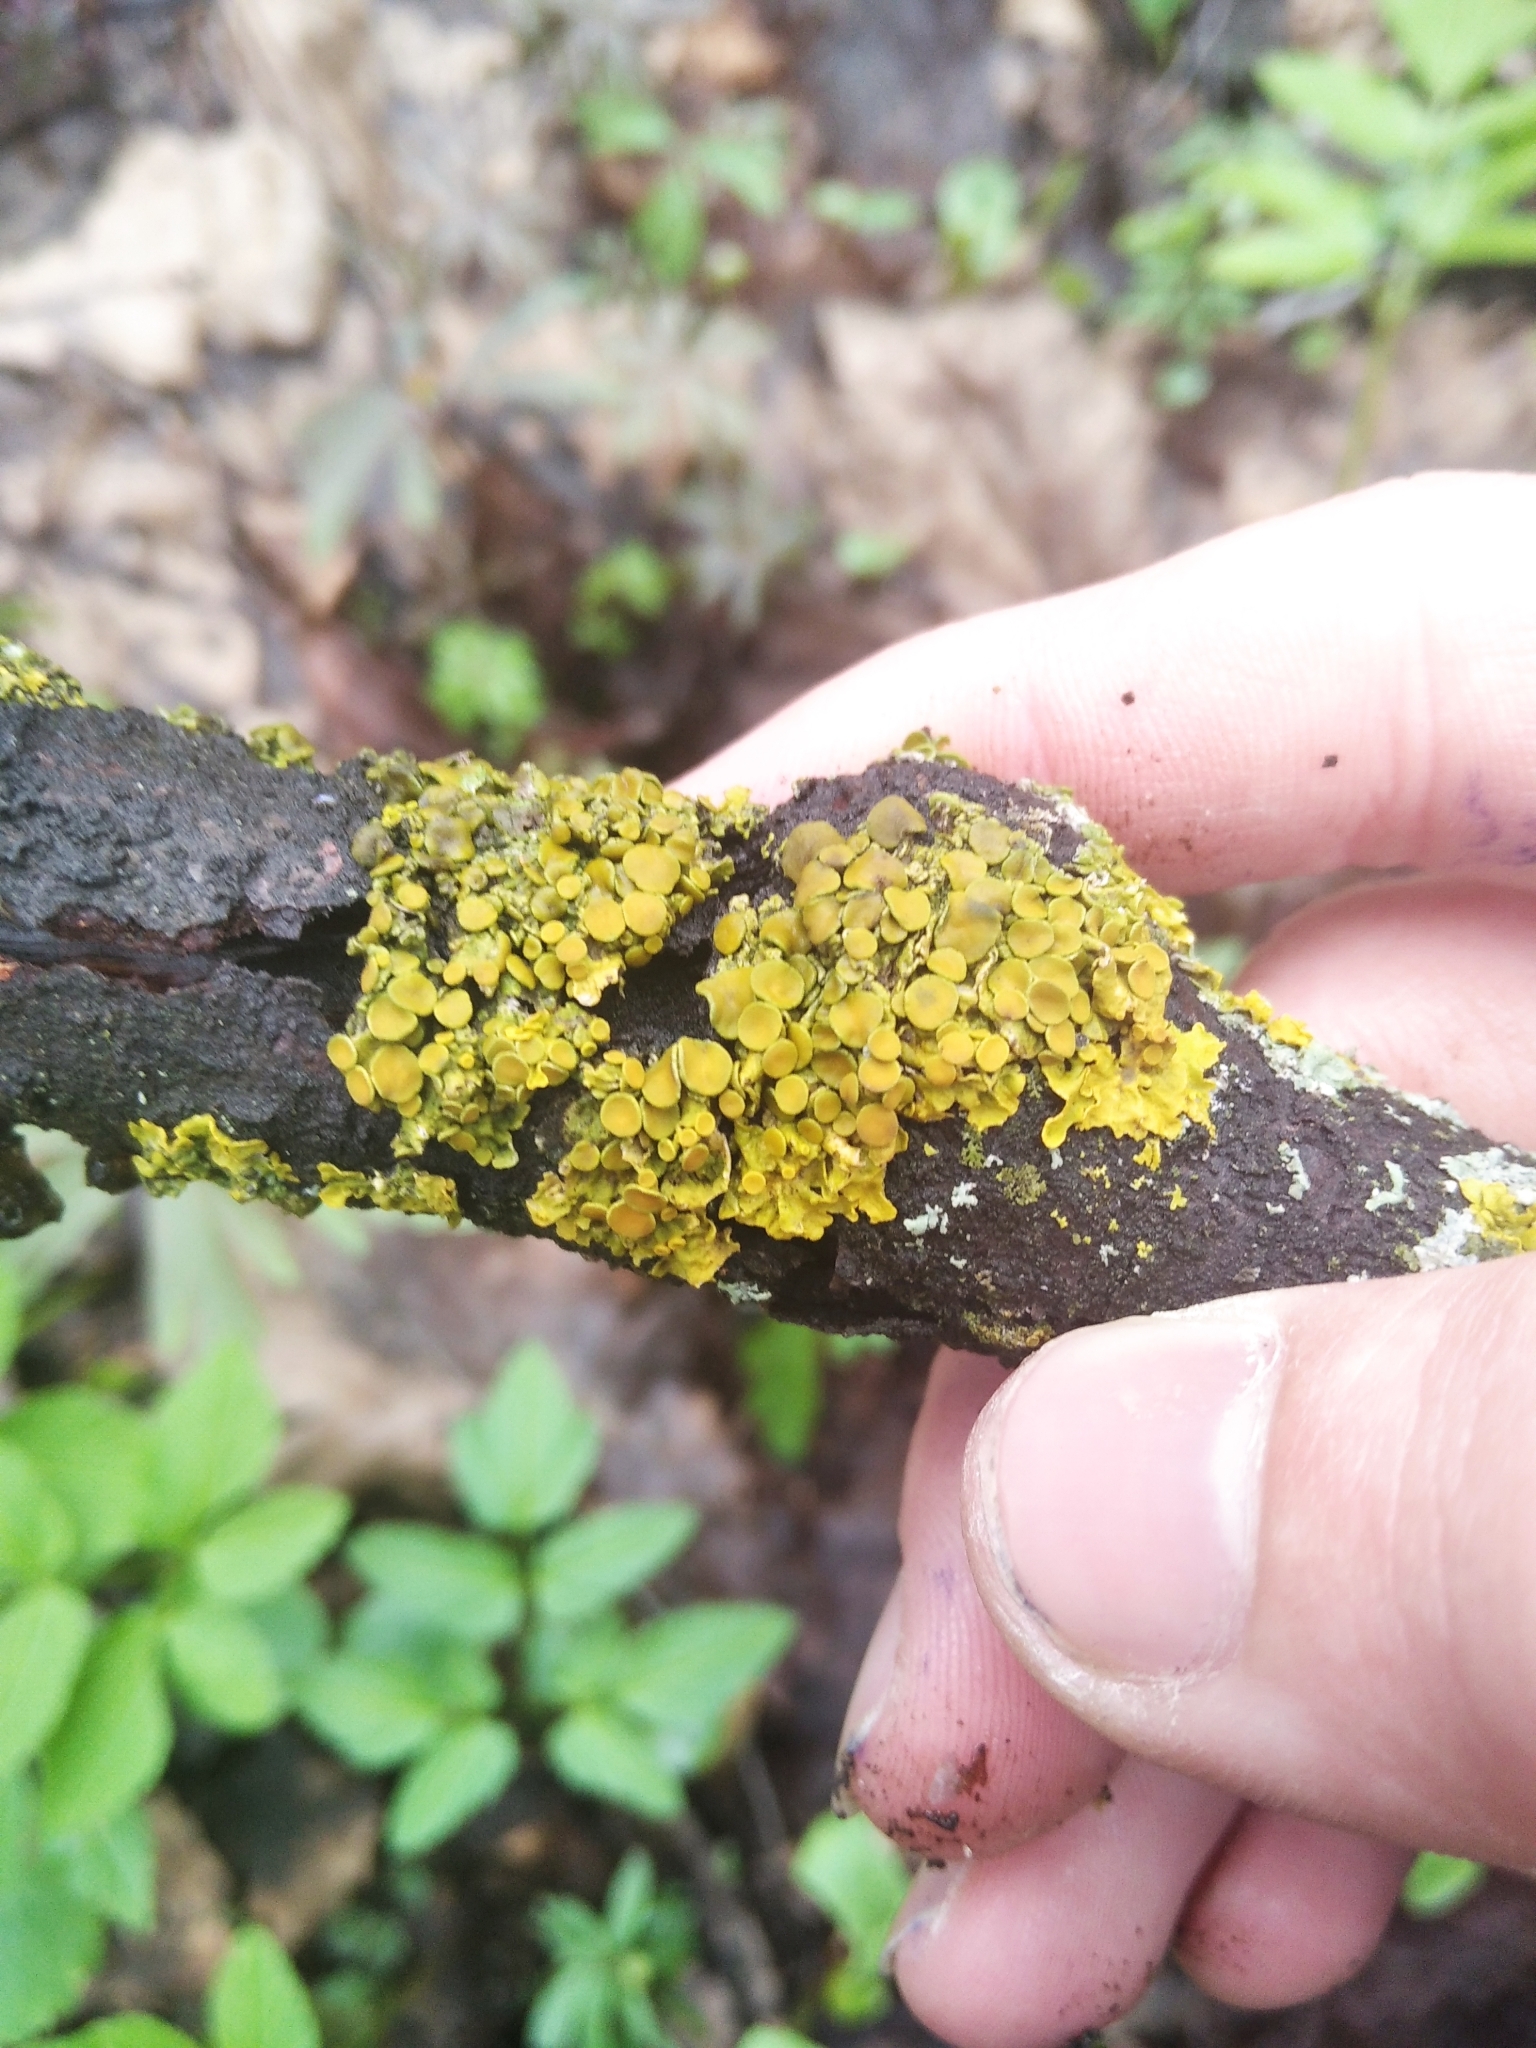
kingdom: Fungi
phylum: Ascomycota
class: Lecanoromycetes
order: Teloschistales
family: Teloschistaceae
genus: Xanthoria
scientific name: Xanthoria parietina
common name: Common orange lichen
